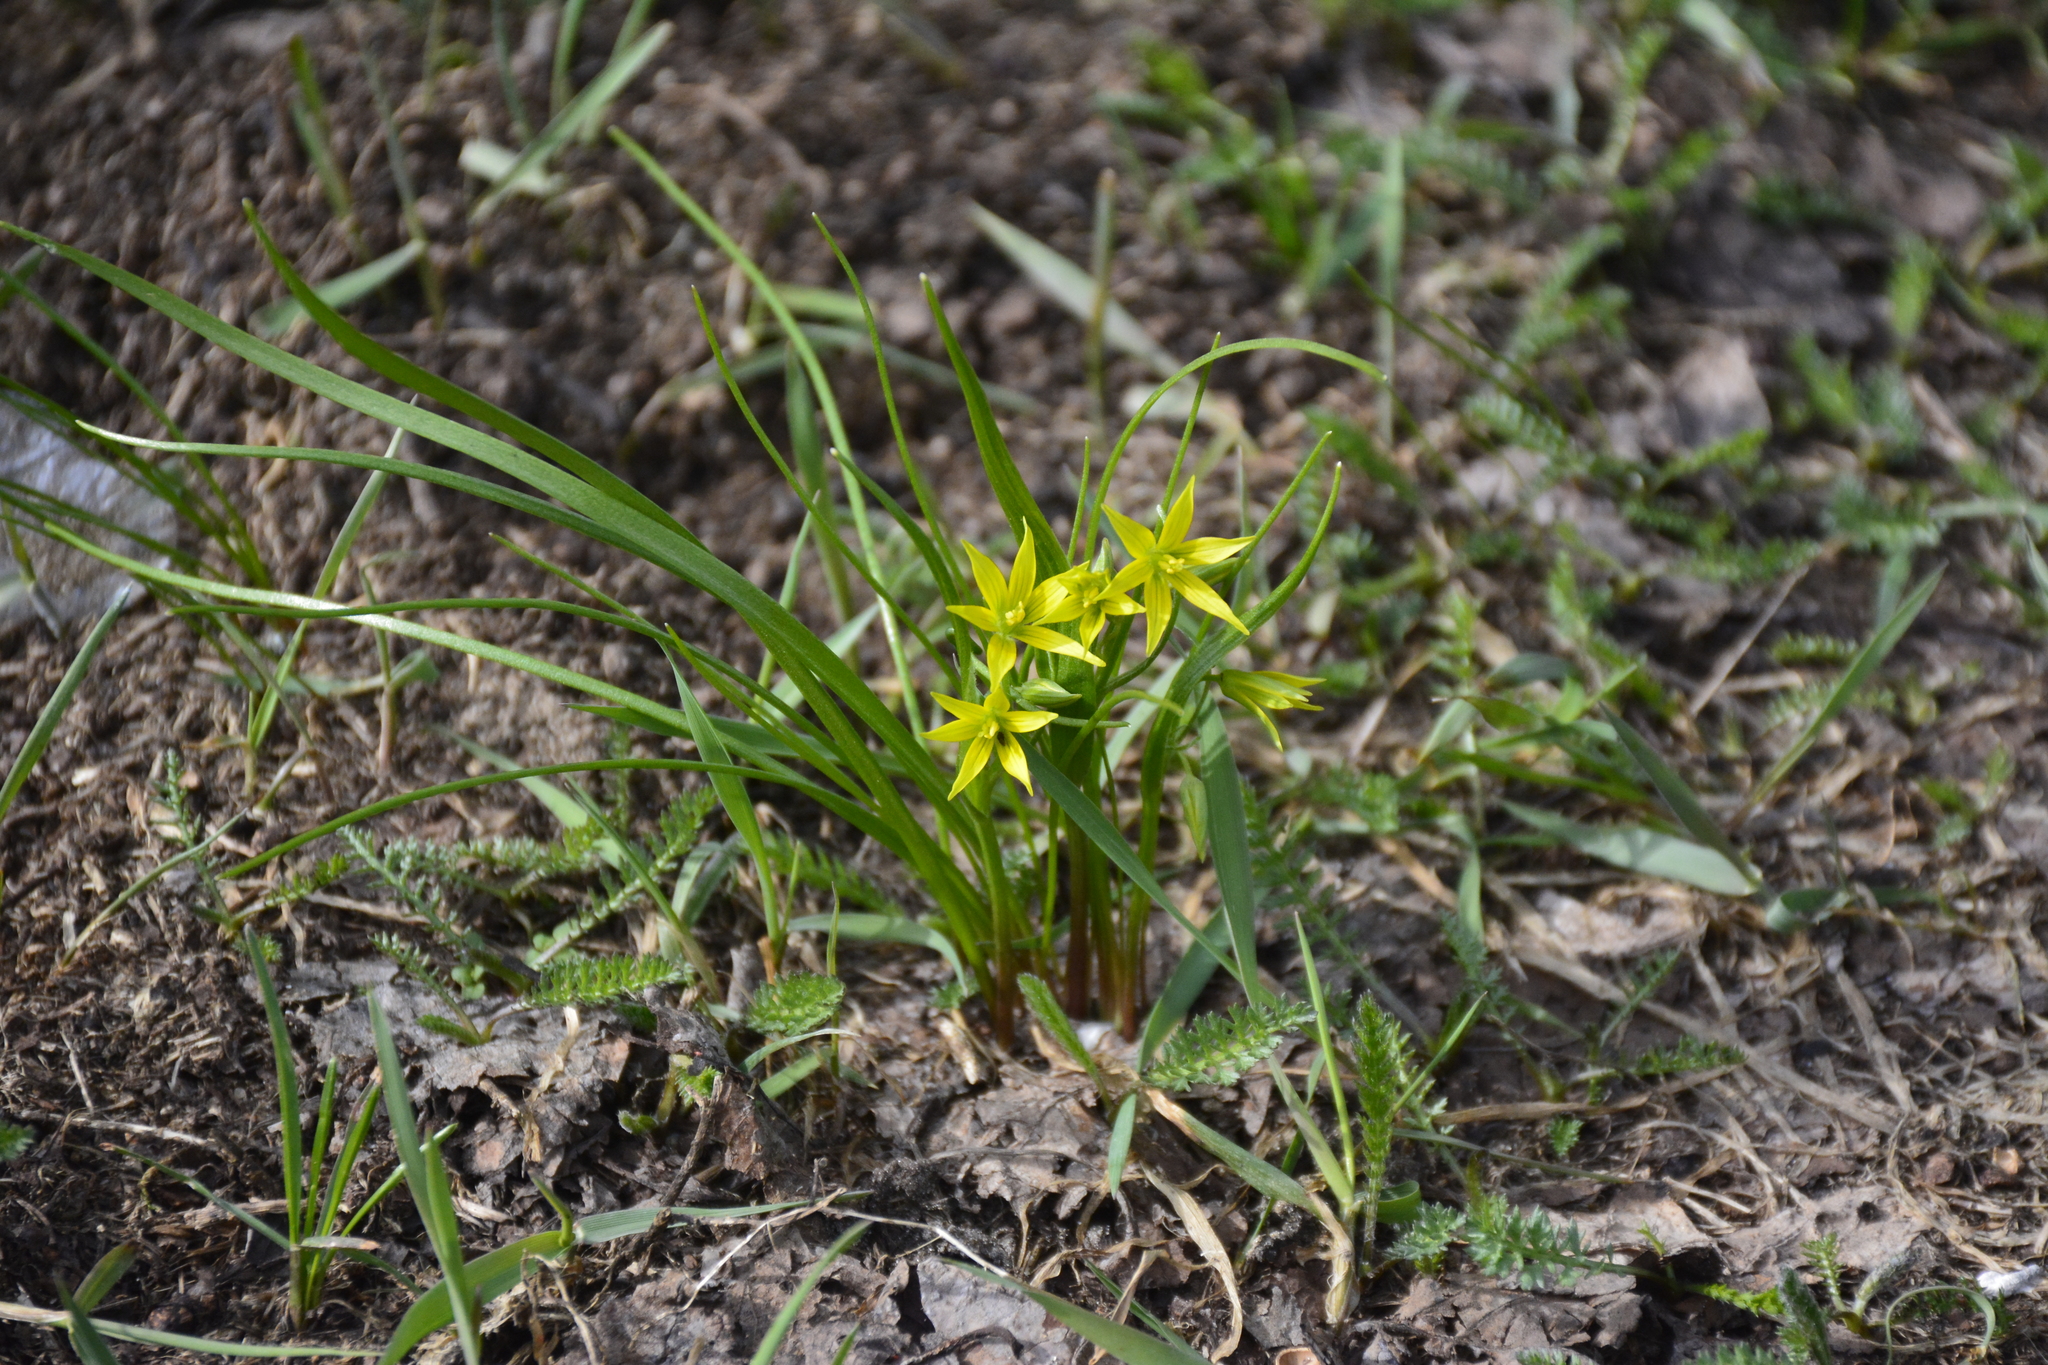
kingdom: Plantae
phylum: Tracheophyta
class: Liliopsida
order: Liliales
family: Liliaceae
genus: Gagea
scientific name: Gagea minima
